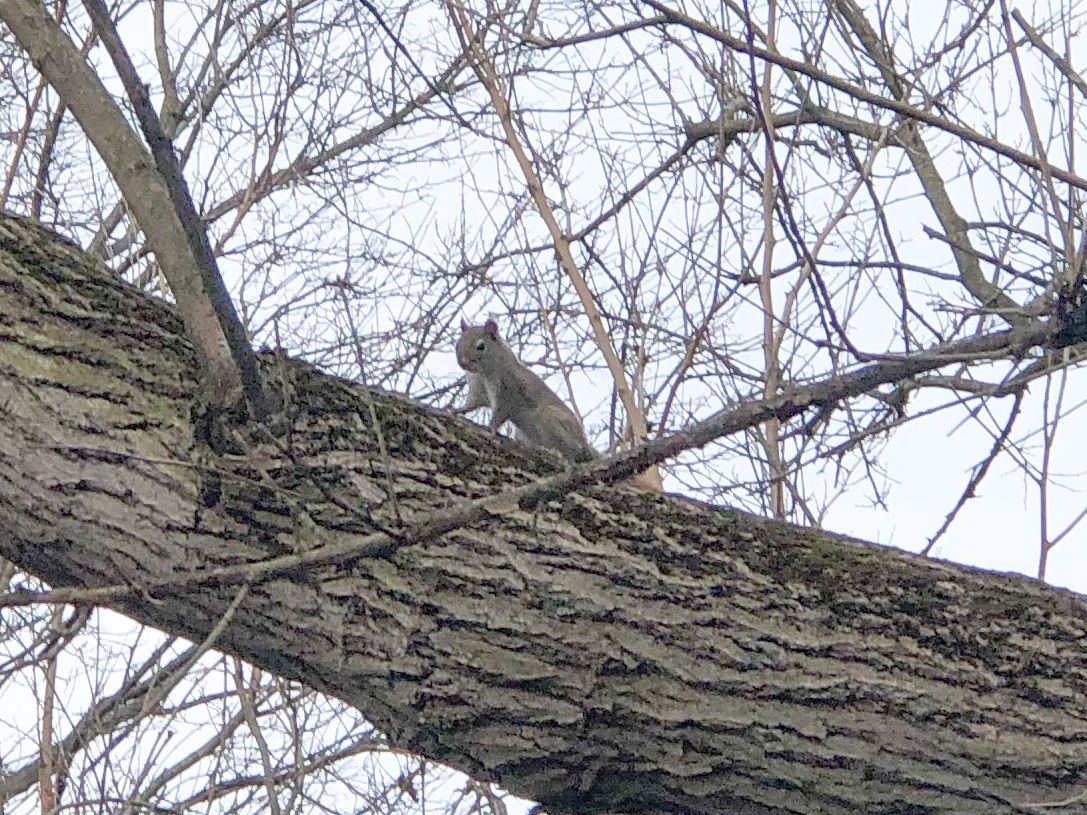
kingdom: Animalia
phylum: Chordata
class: Mammalia
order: Rodentia
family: Sciuridae
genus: Sciurus
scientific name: Sciurus carolinensis
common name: Eastern gray squirrel
